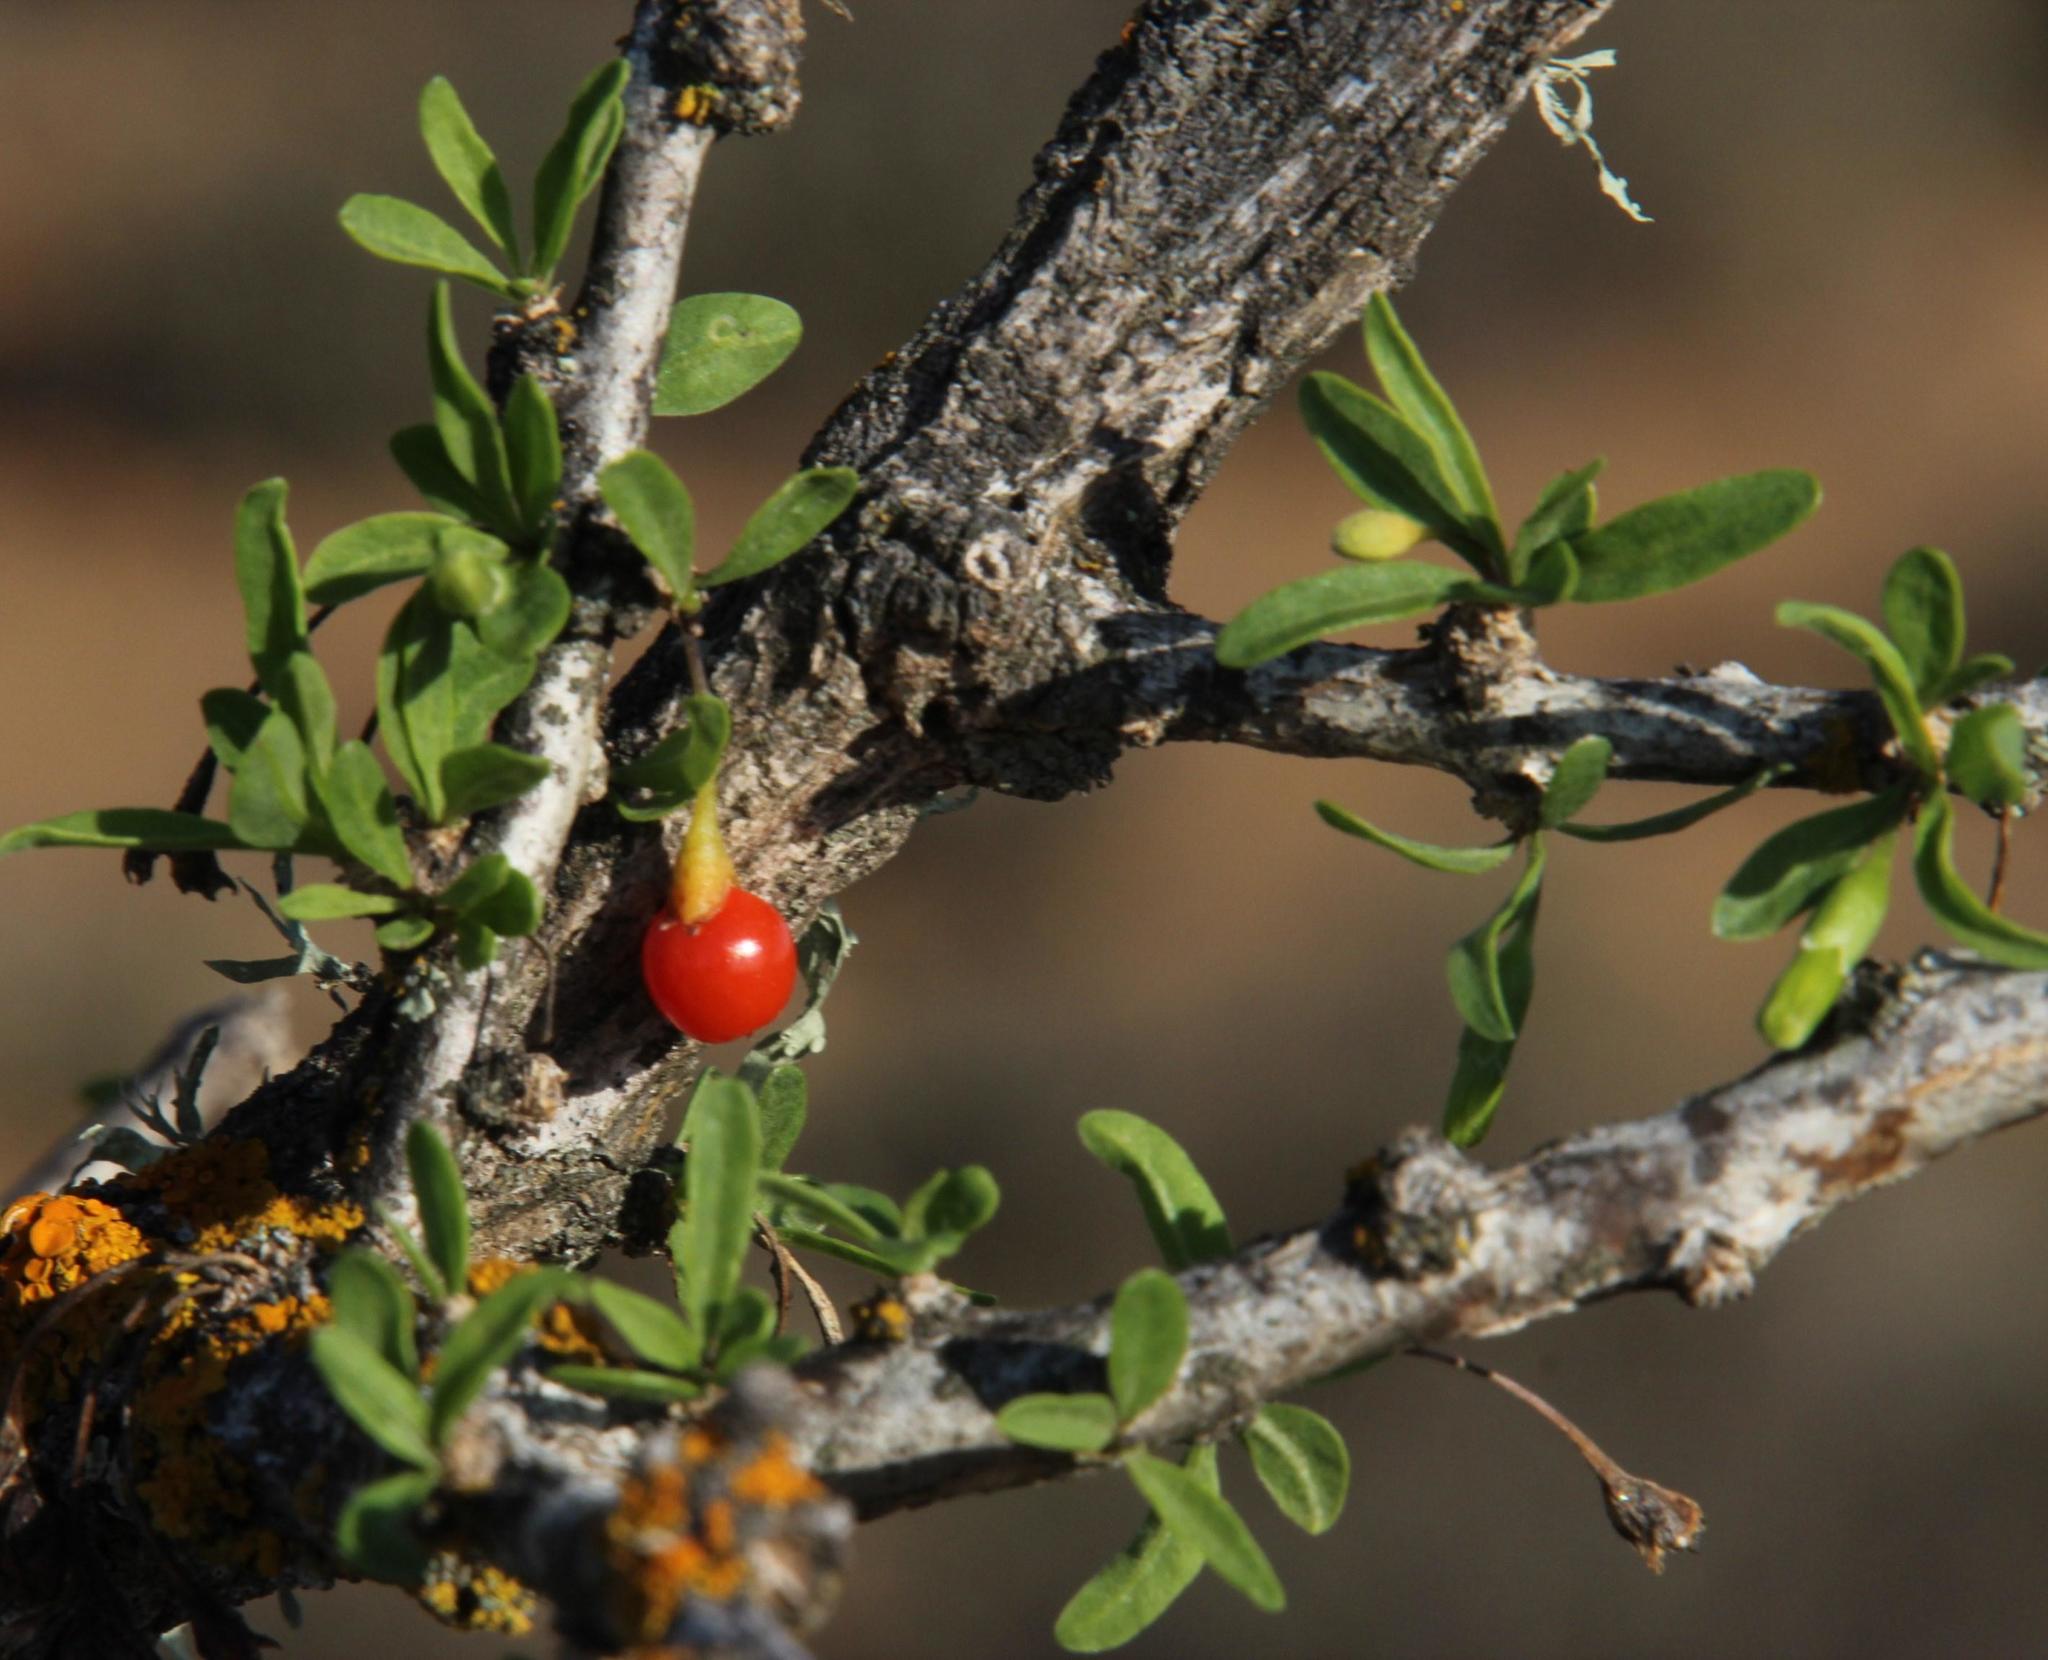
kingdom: Plantae
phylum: Tracheophyta
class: Magnoliopsida
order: Solanales
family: Solanaceae
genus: Lycium
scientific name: Lycium oxycarpum
